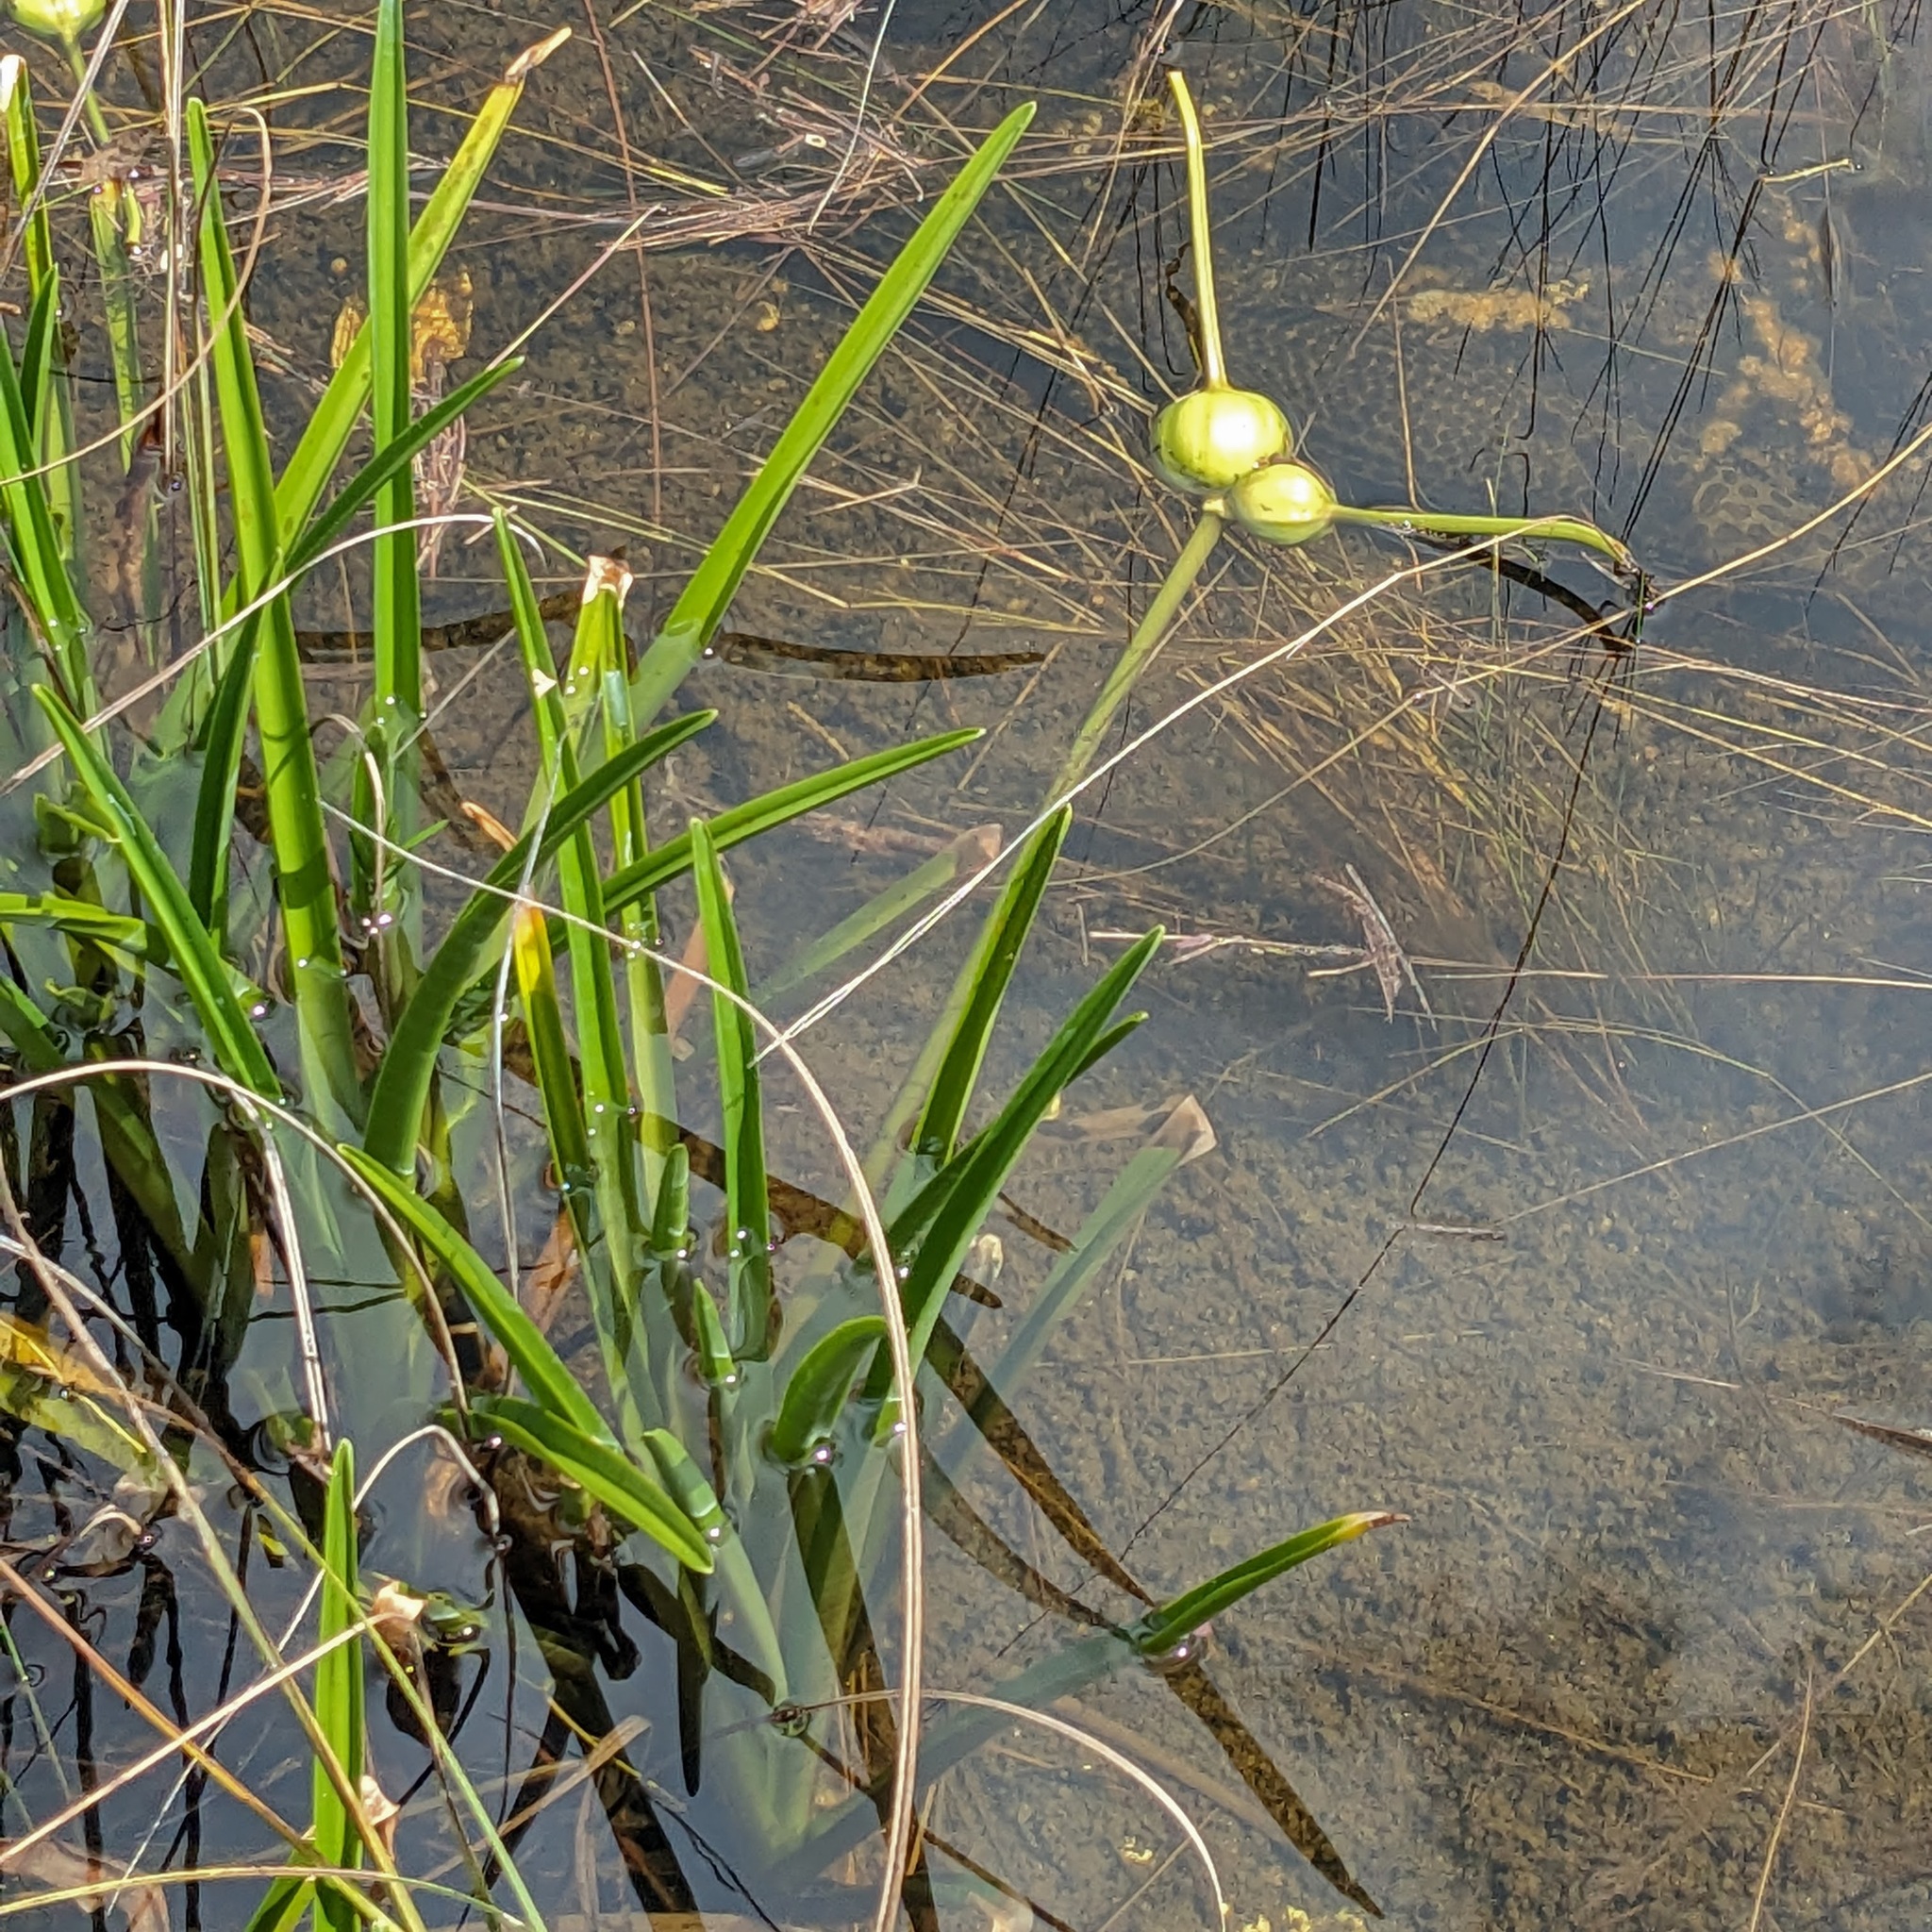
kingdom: Plantae
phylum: Tracheophyta
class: Liliopsida
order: Asparagales
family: Amaryllidaceae
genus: Crinum
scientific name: Crinum americanum
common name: Florida swamp-lily
